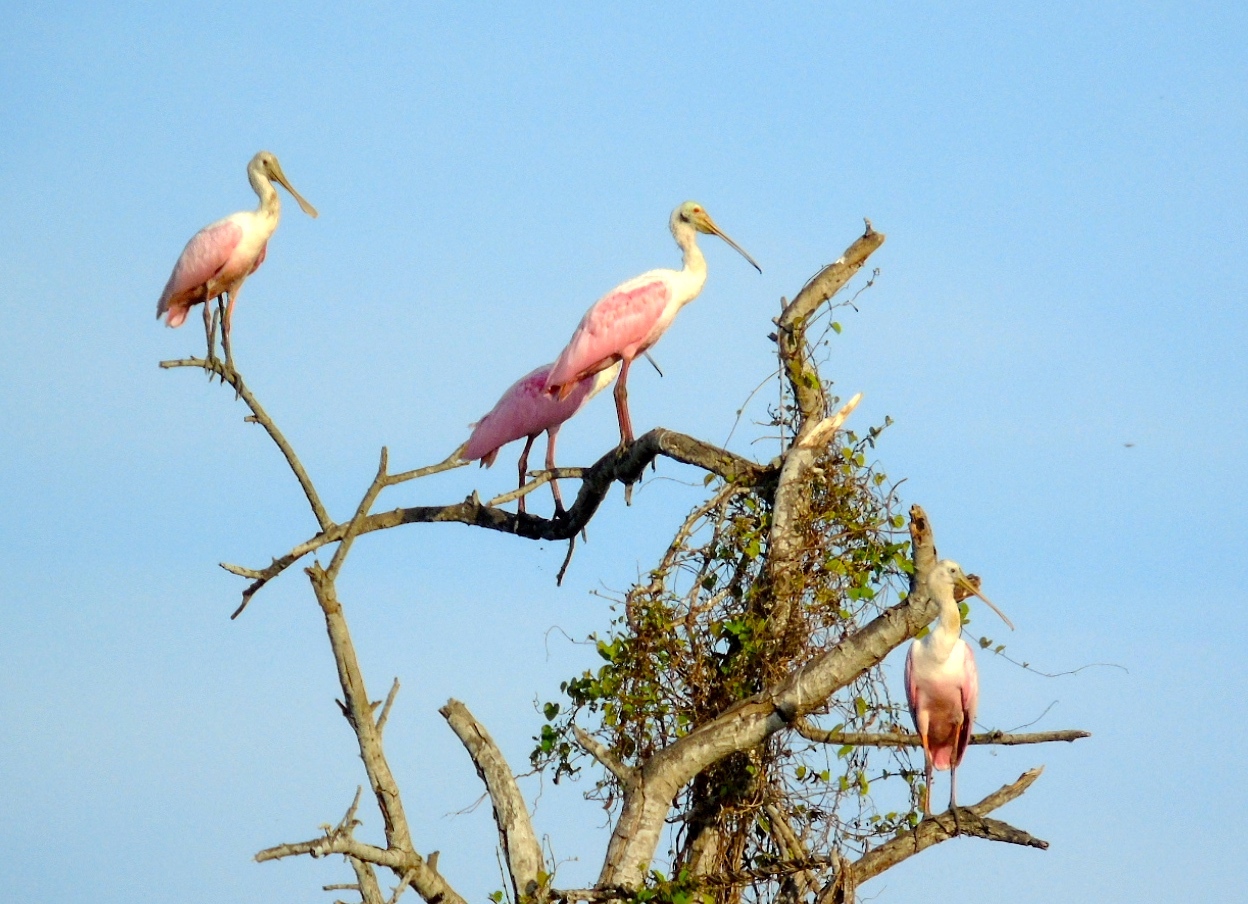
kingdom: Animalia
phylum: Chordata
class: Aves
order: Pelecaniformes
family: Threskiornithidae
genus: Platalea
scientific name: Platalea ajaja
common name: Roseate spoonbill
